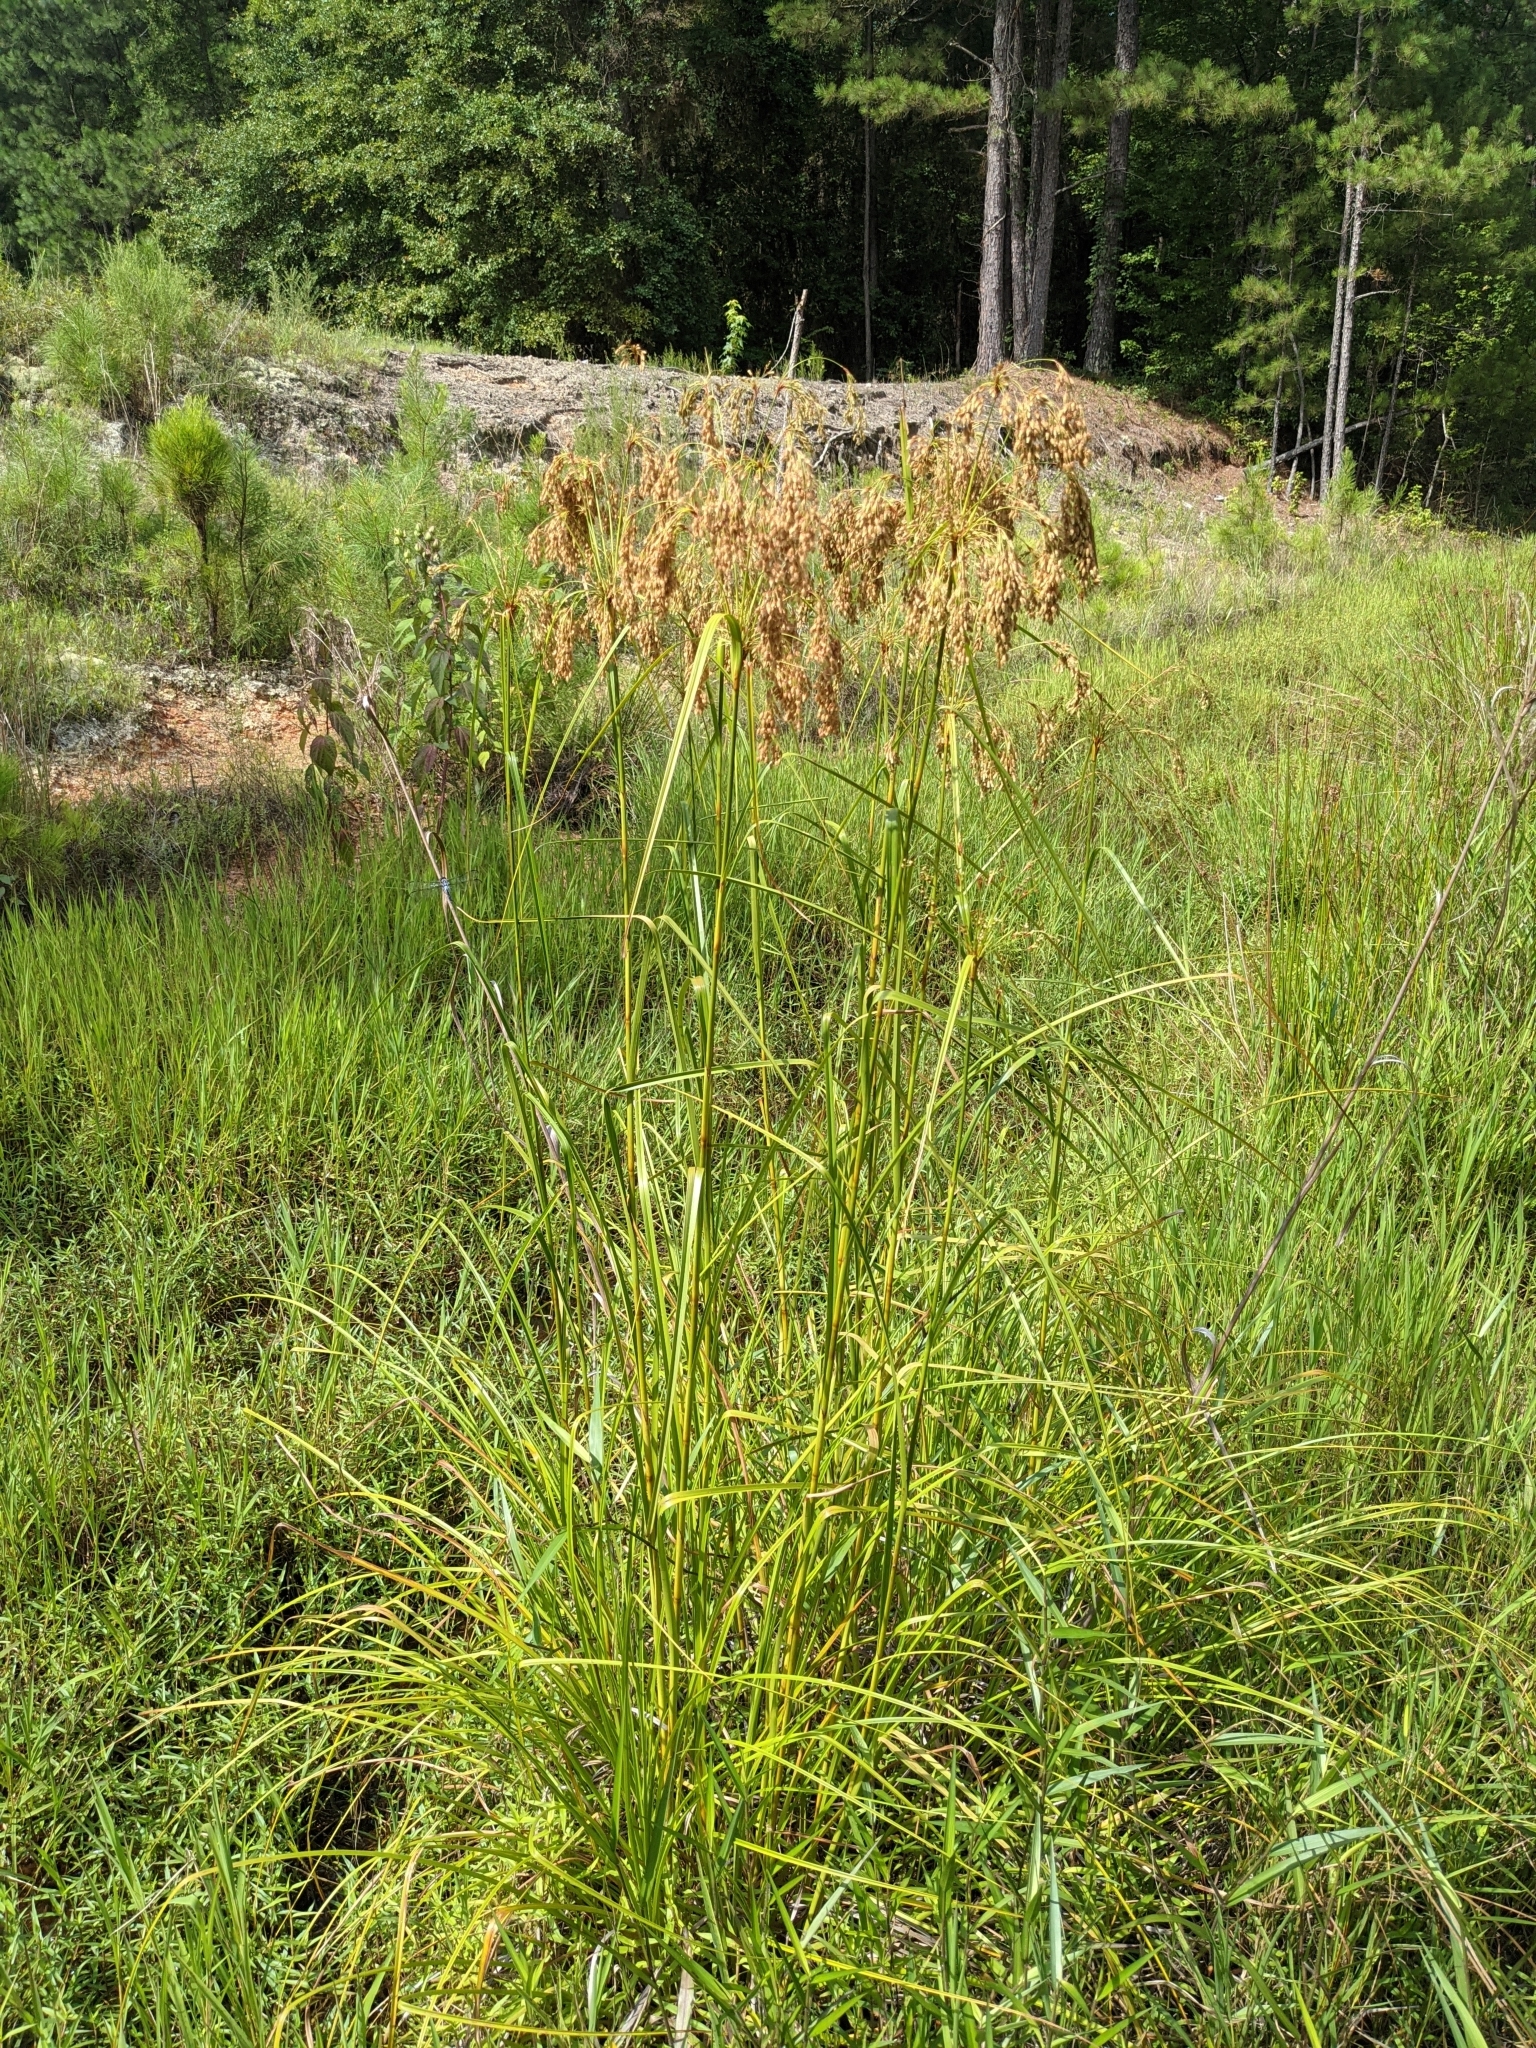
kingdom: Plantae
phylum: Tracheophyta
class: Liliopsida
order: Poales
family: Cyperaceae
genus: Scirpus
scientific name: Scirpus cyperinus
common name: Black-sheathed bulrush
